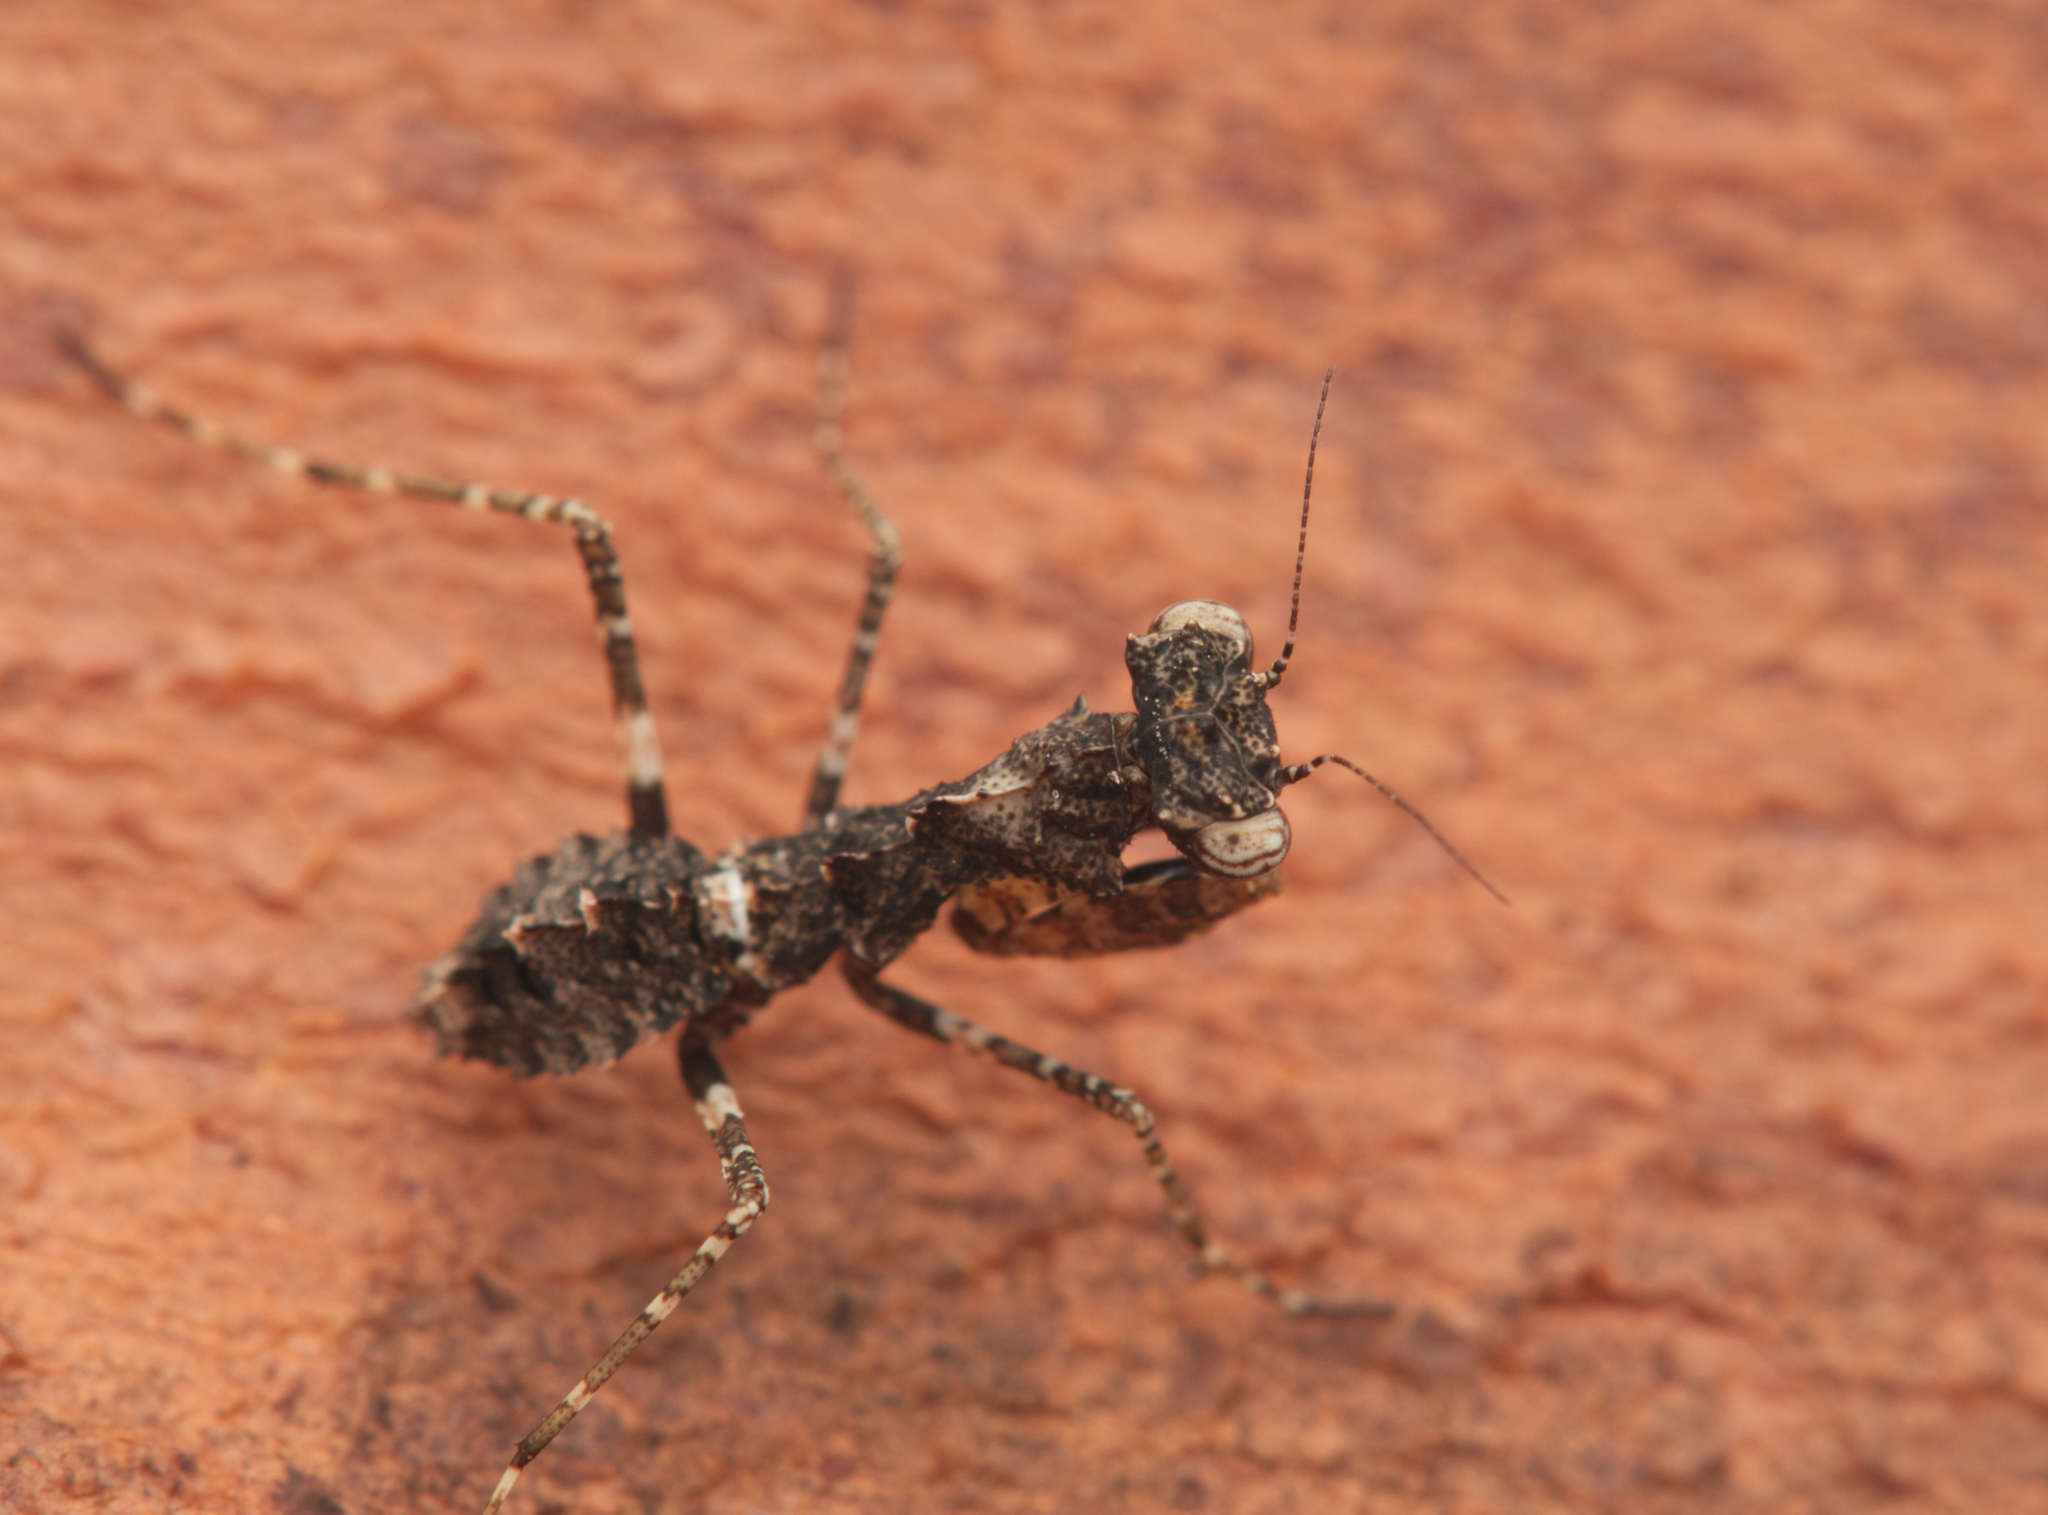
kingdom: Animalia
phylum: Arthropoda
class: Insecta
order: Mantodea
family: Nanomantidae
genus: Paraoxypilus
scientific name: Paraoxypilus tasmaniensis
